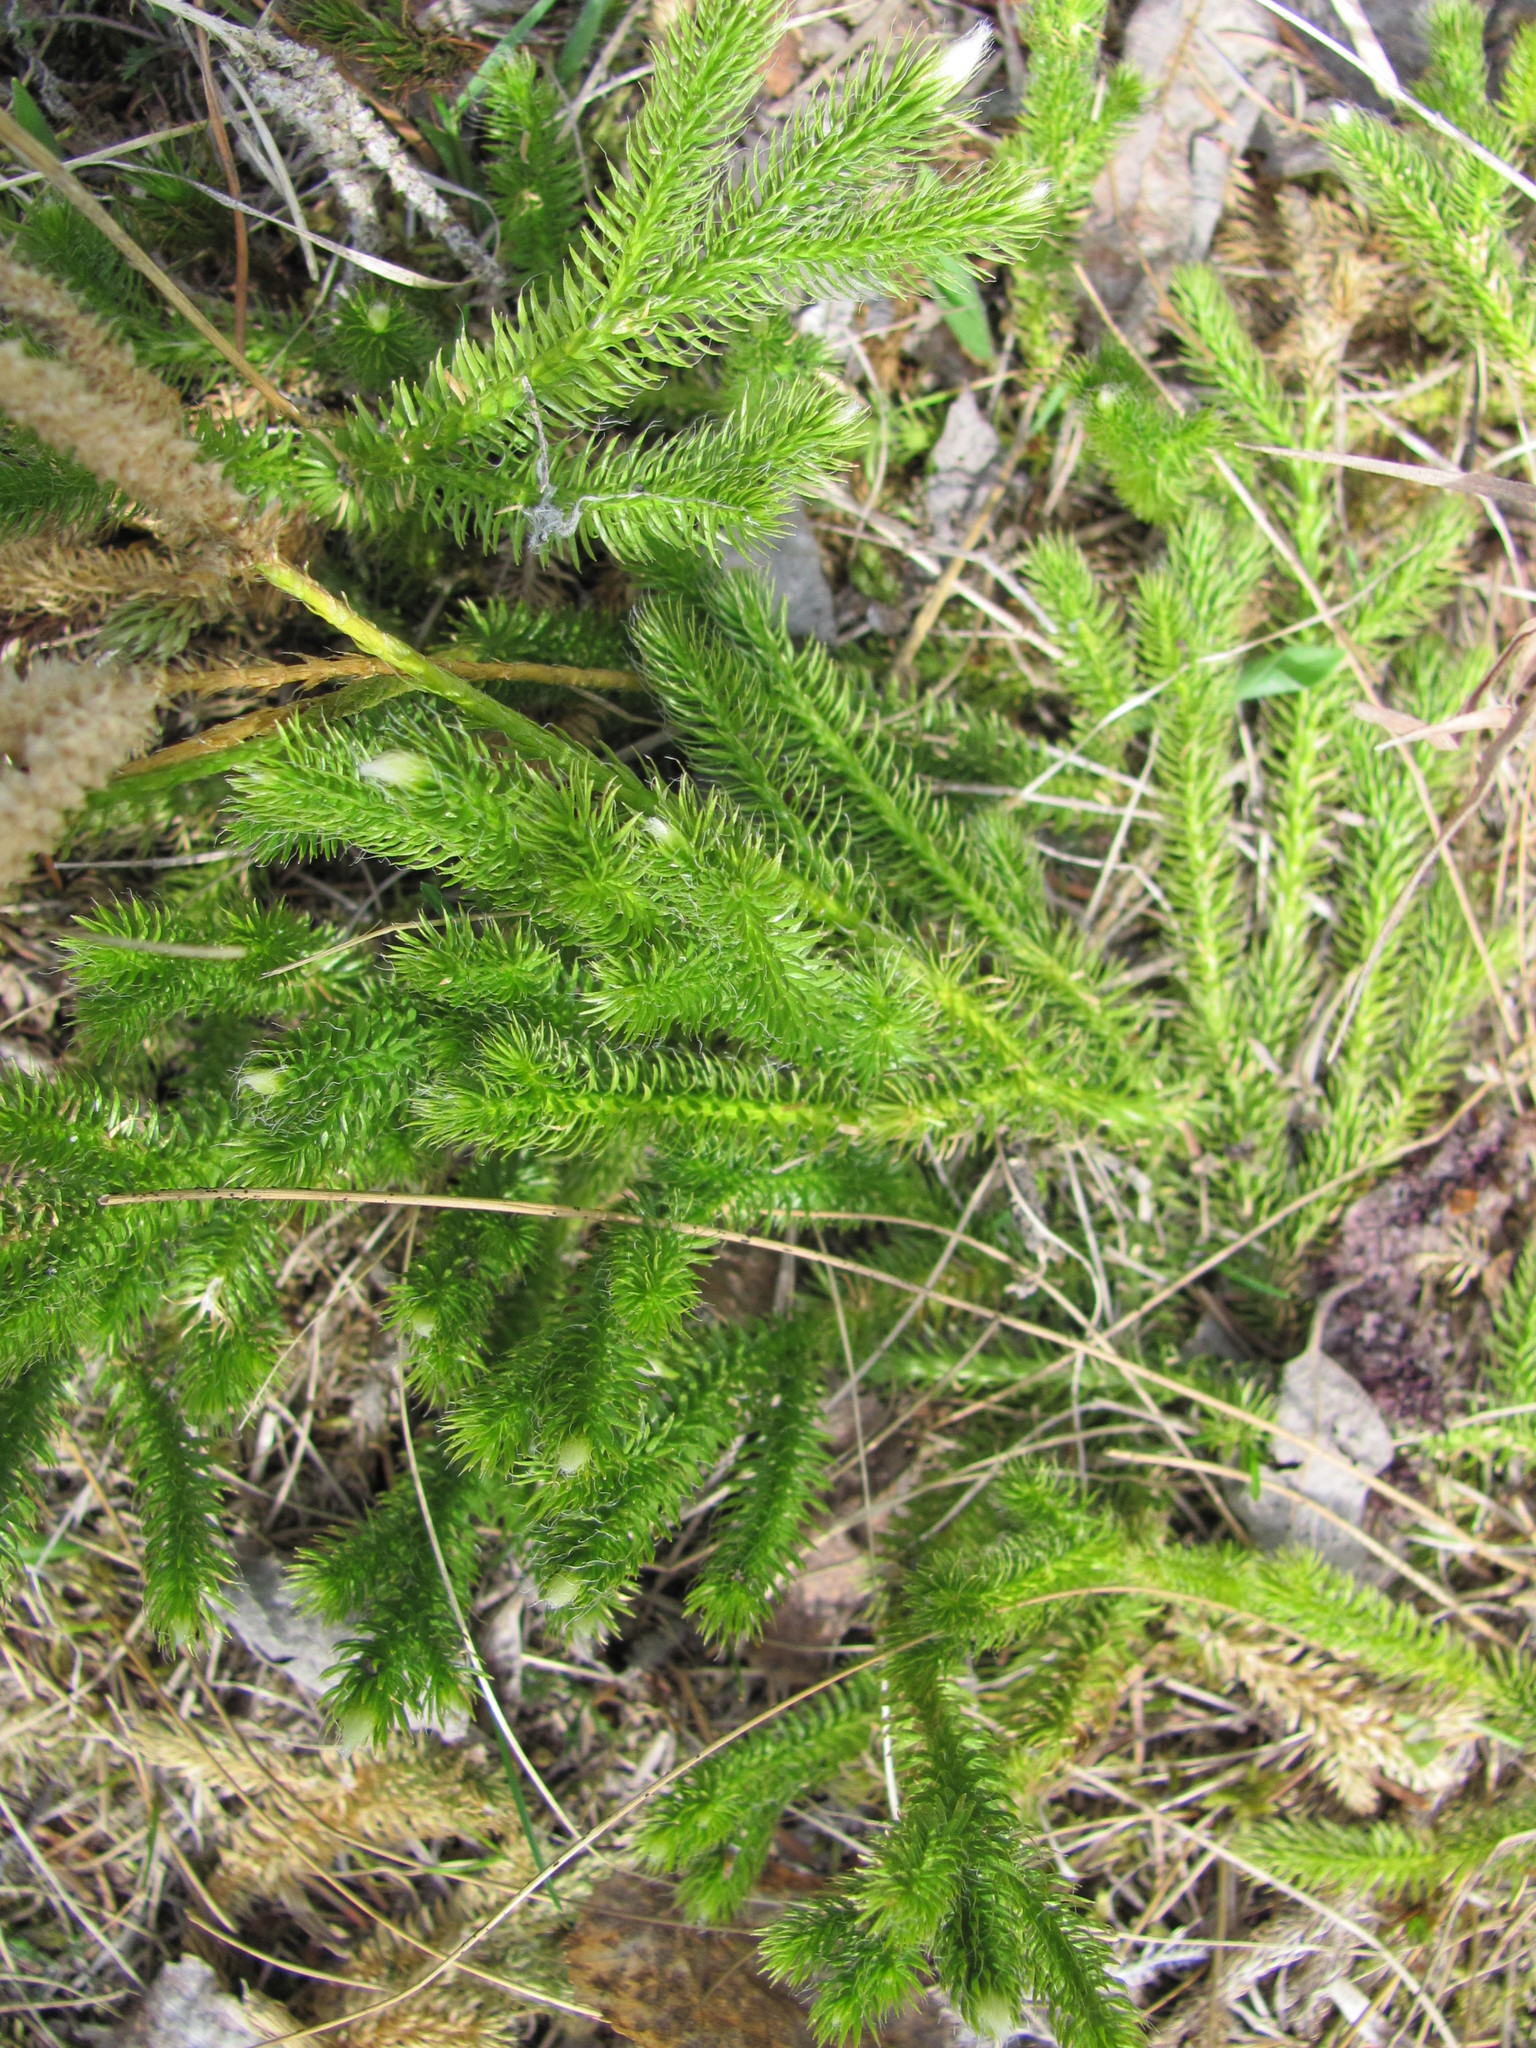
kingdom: Plantae
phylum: Tracheophyta
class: Lycopodiopsida
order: Lycopodiales
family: Lycopodiaceae
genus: Lycopodium
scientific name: Lycopodium clavatum
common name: Stag's-horn clubmoss
